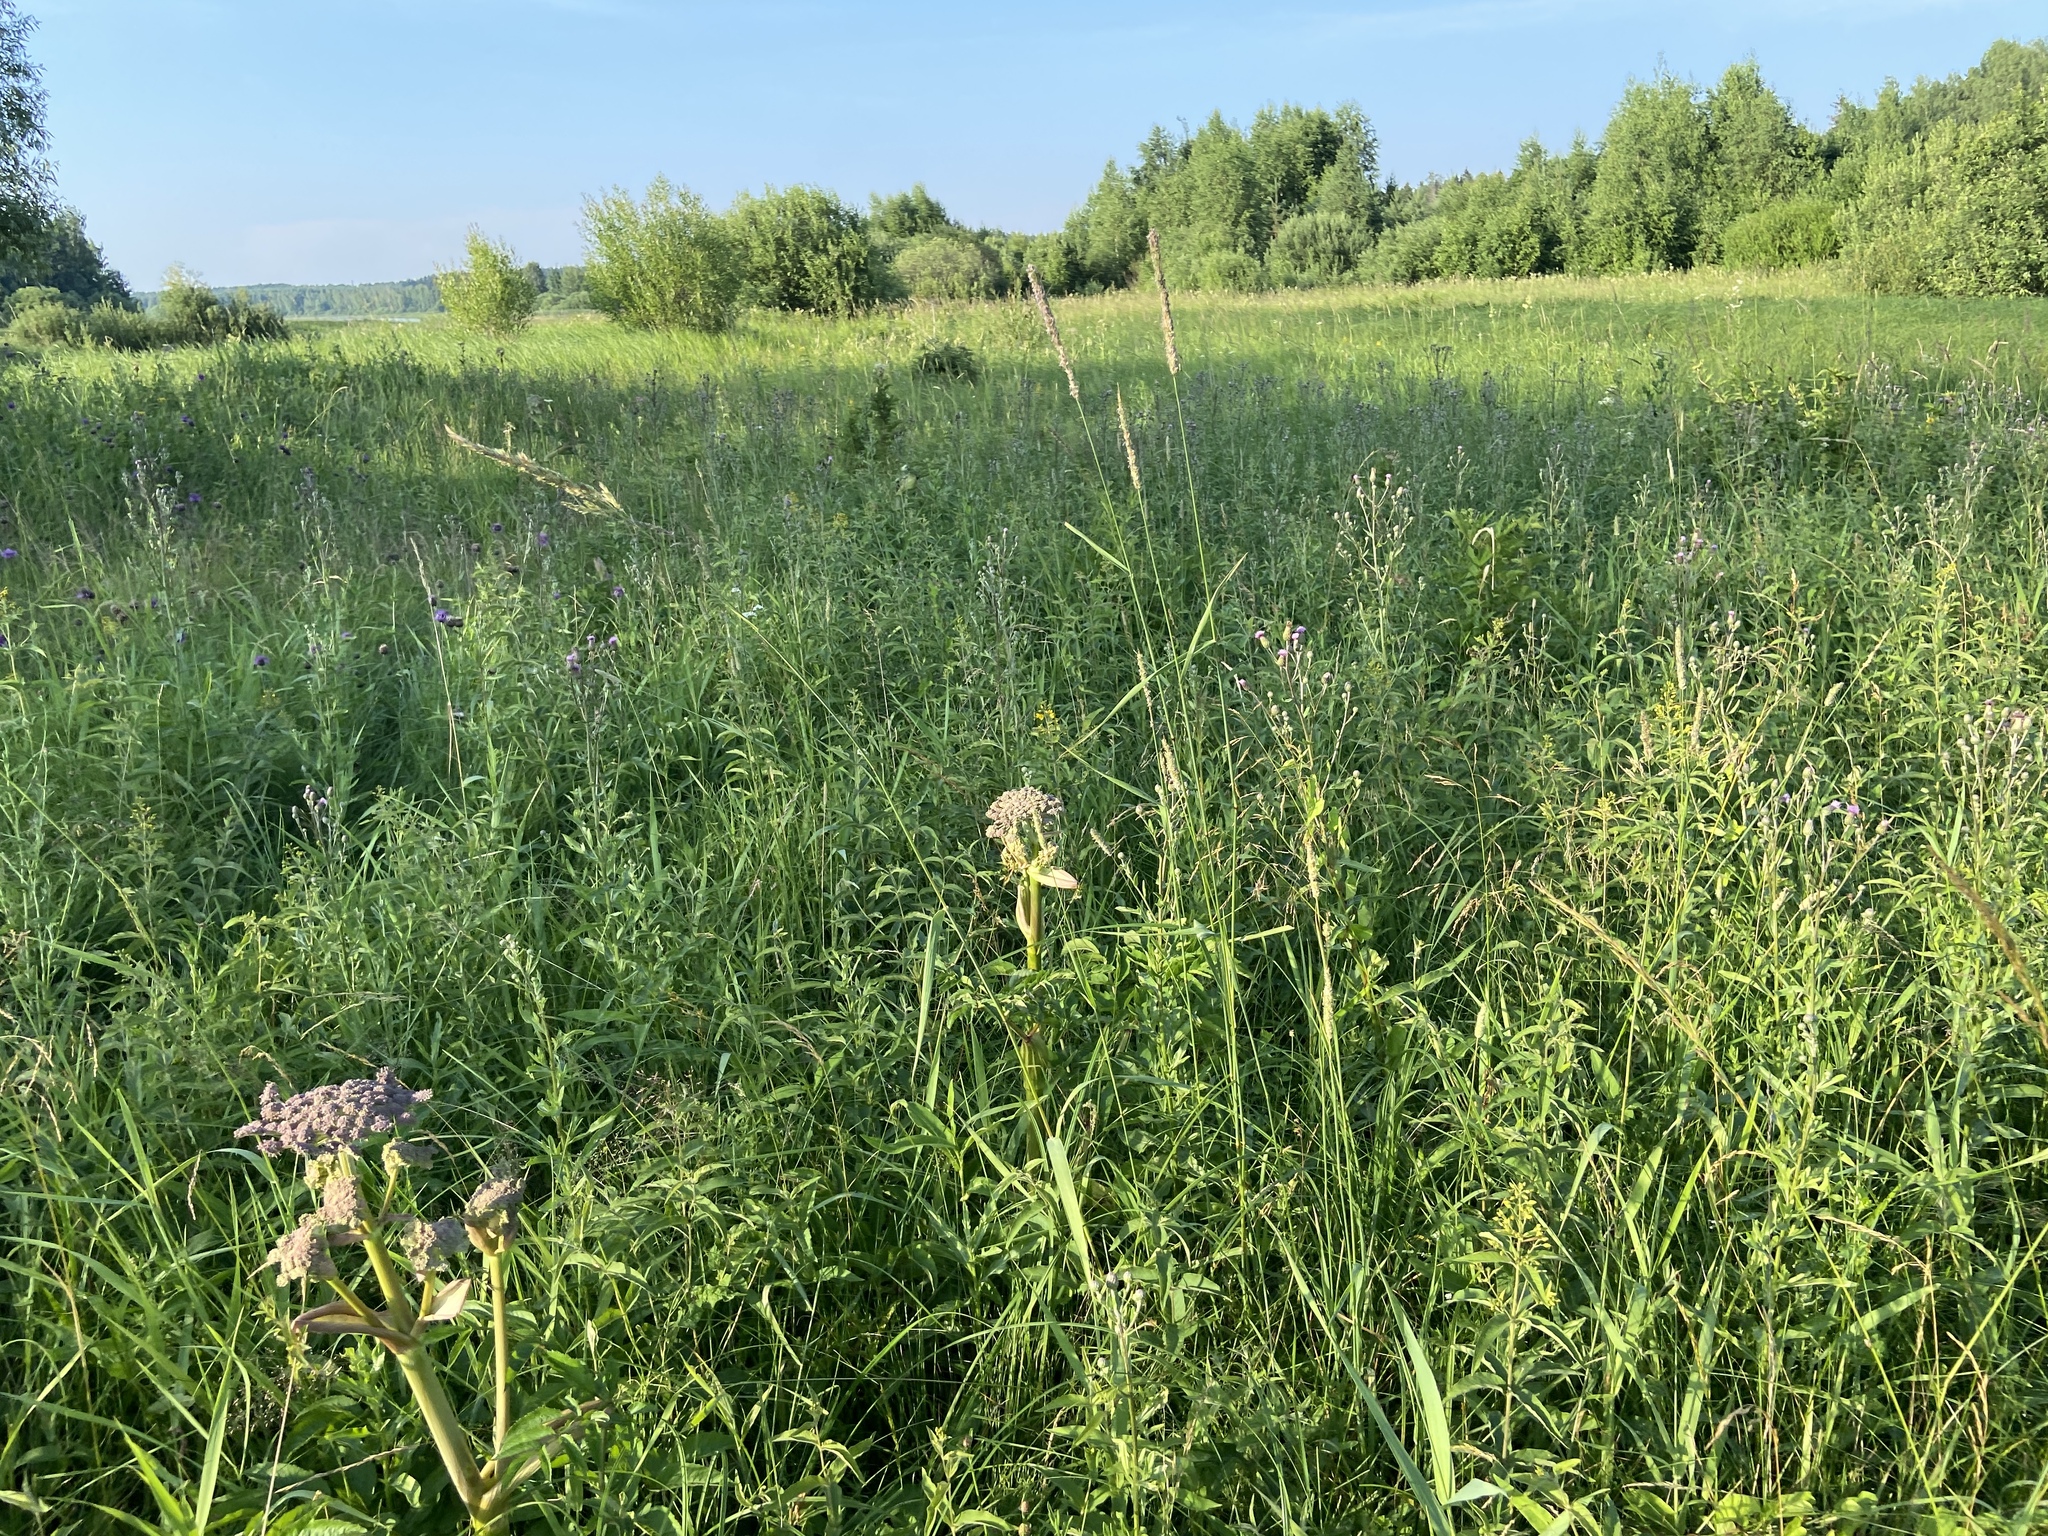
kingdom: Plantae
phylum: Tracheophyta
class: Magnoliopsida
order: Asterales
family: Asteraceae
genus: Cirsium
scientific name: Cirsium arvense
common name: Creeping thistle
